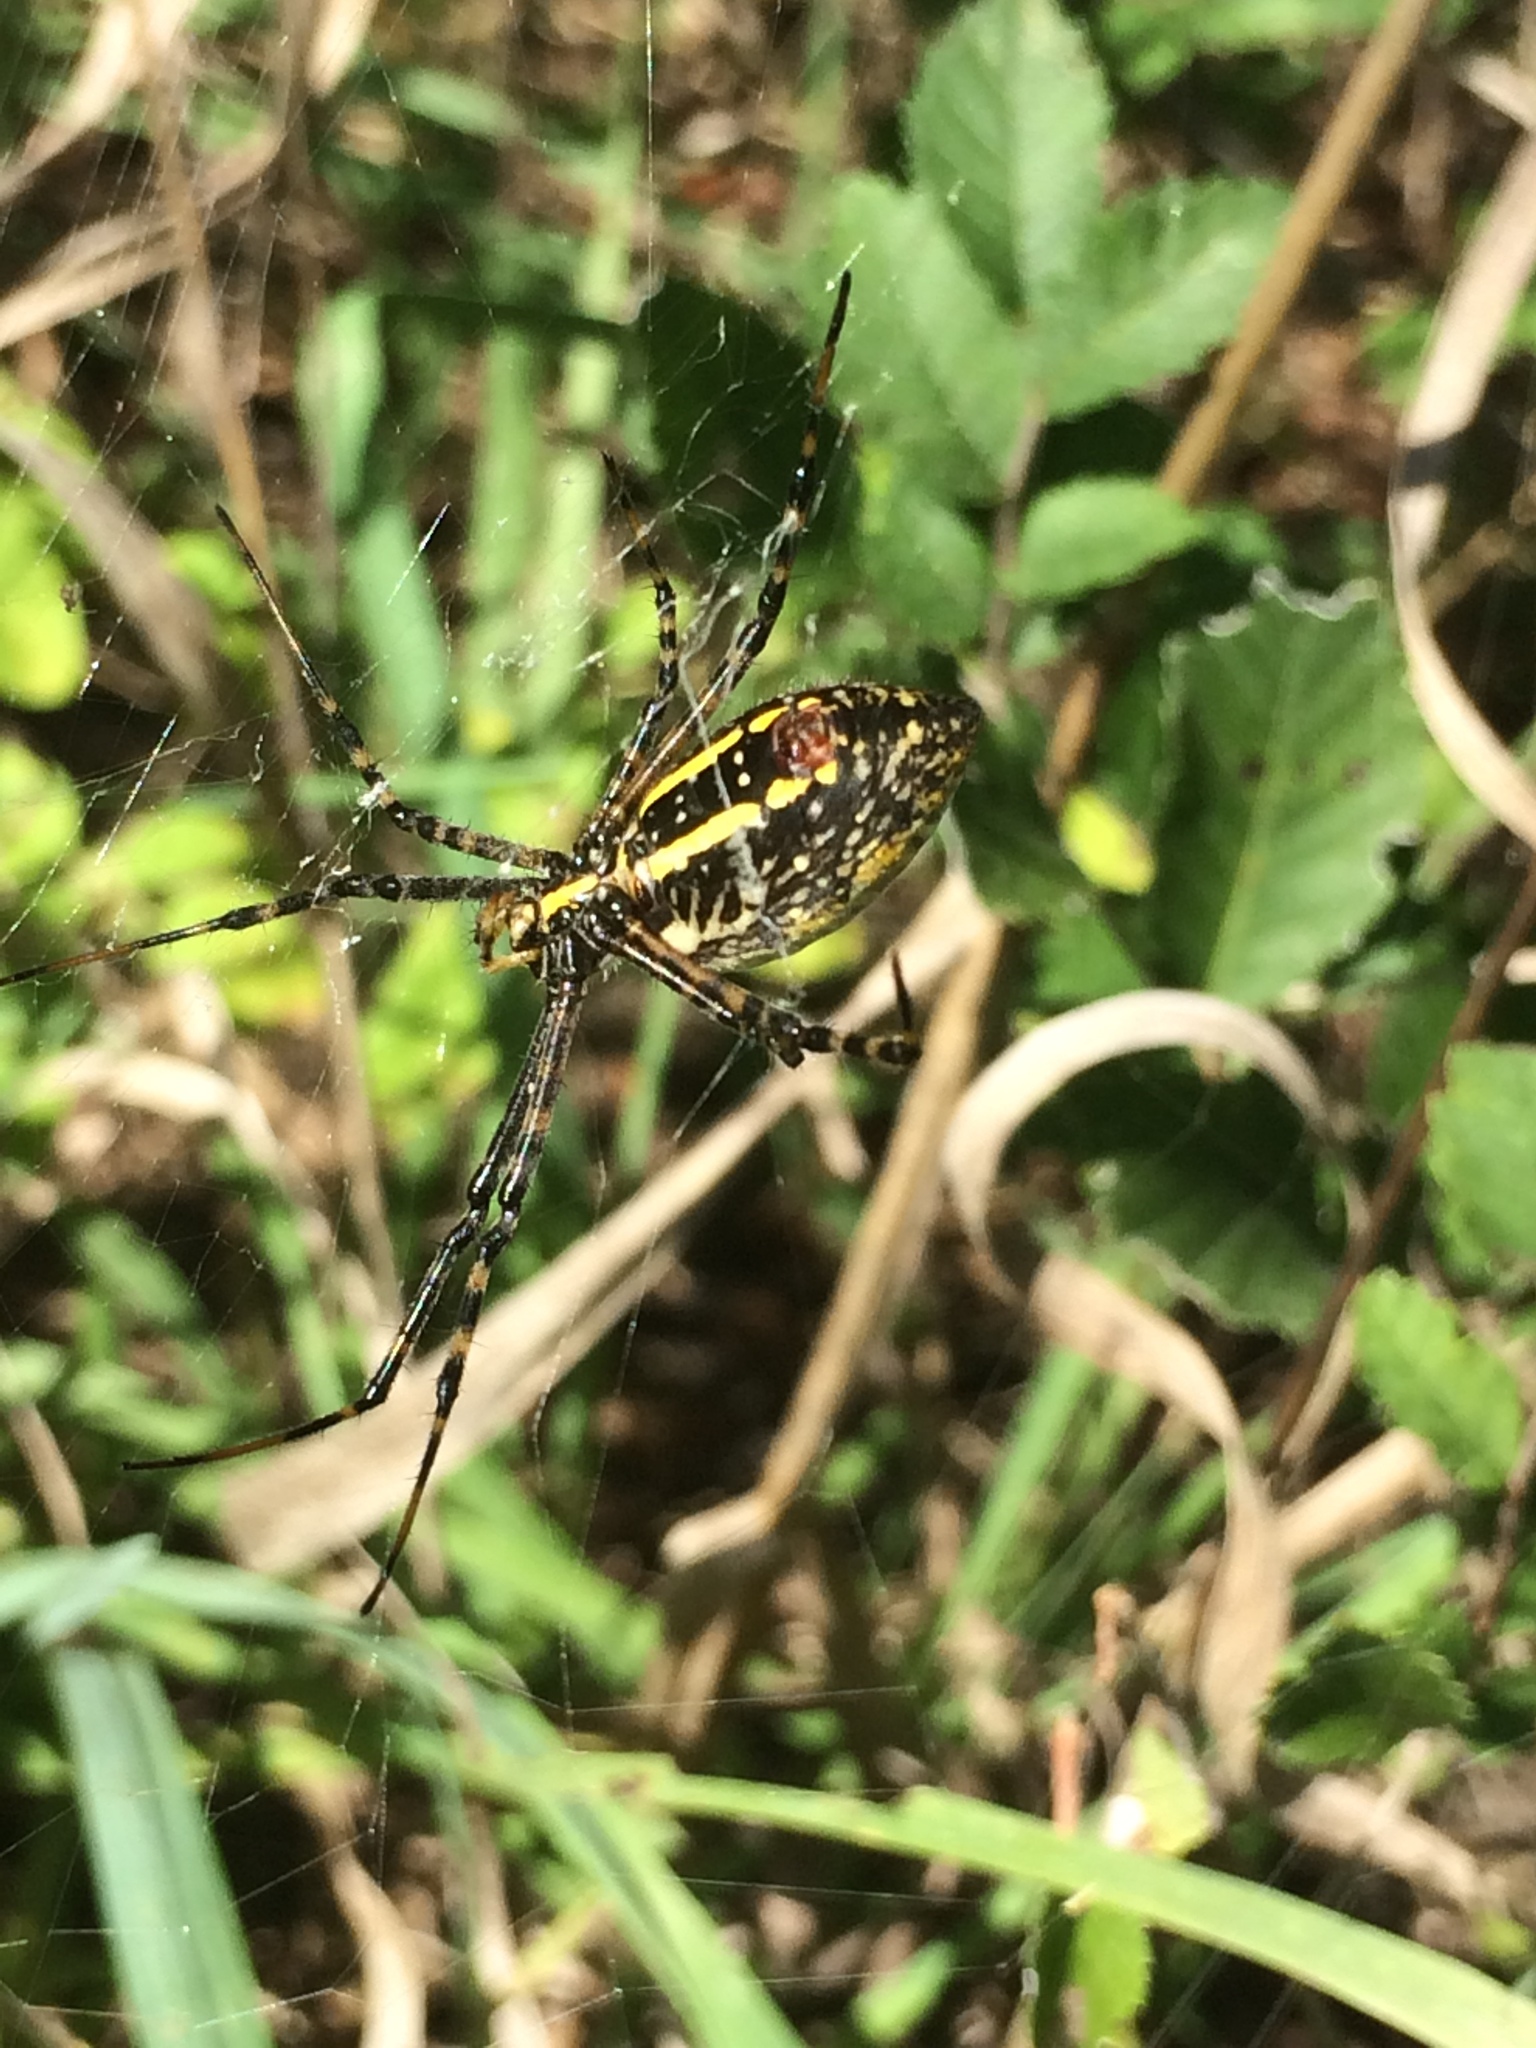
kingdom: Animalia
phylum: Arthropoda
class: Arachnida
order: Araneae
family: Araneidae
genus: Argiope
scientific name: Argiope trifasciata
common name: Banded garden spider
